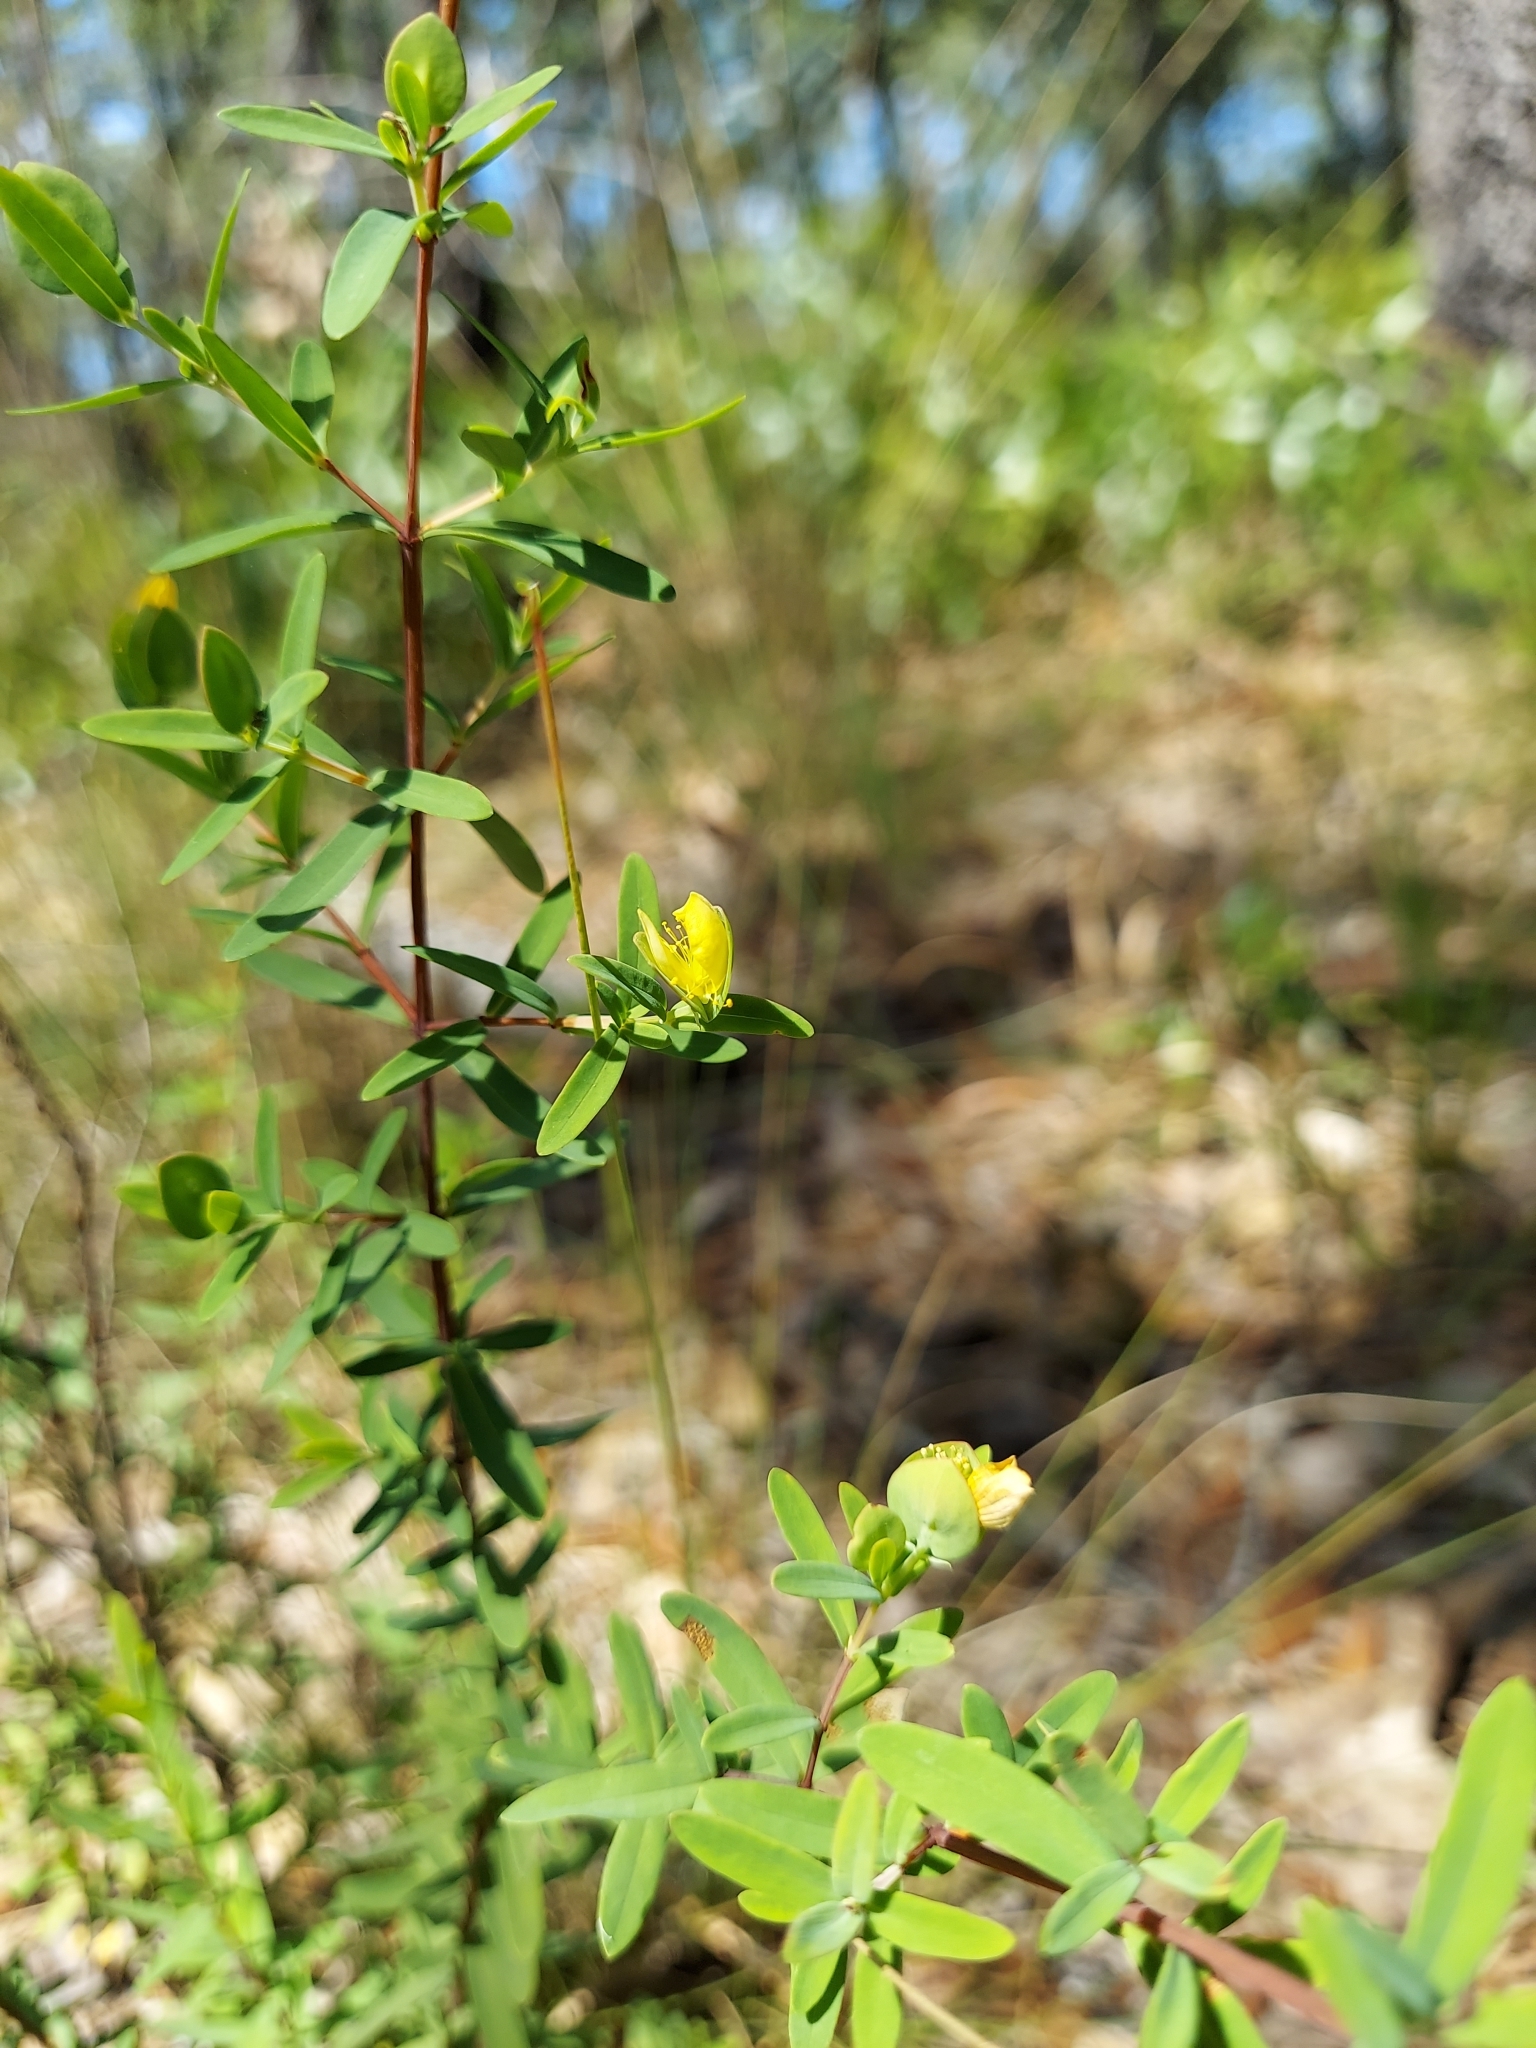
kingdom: Plantae
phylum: Tracheophyta
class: Magnoliopsida
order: Malpighiales
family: Hypericaceae
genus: Hypericum
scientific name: Hypericum hypericoides
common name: St. andrew's cross
